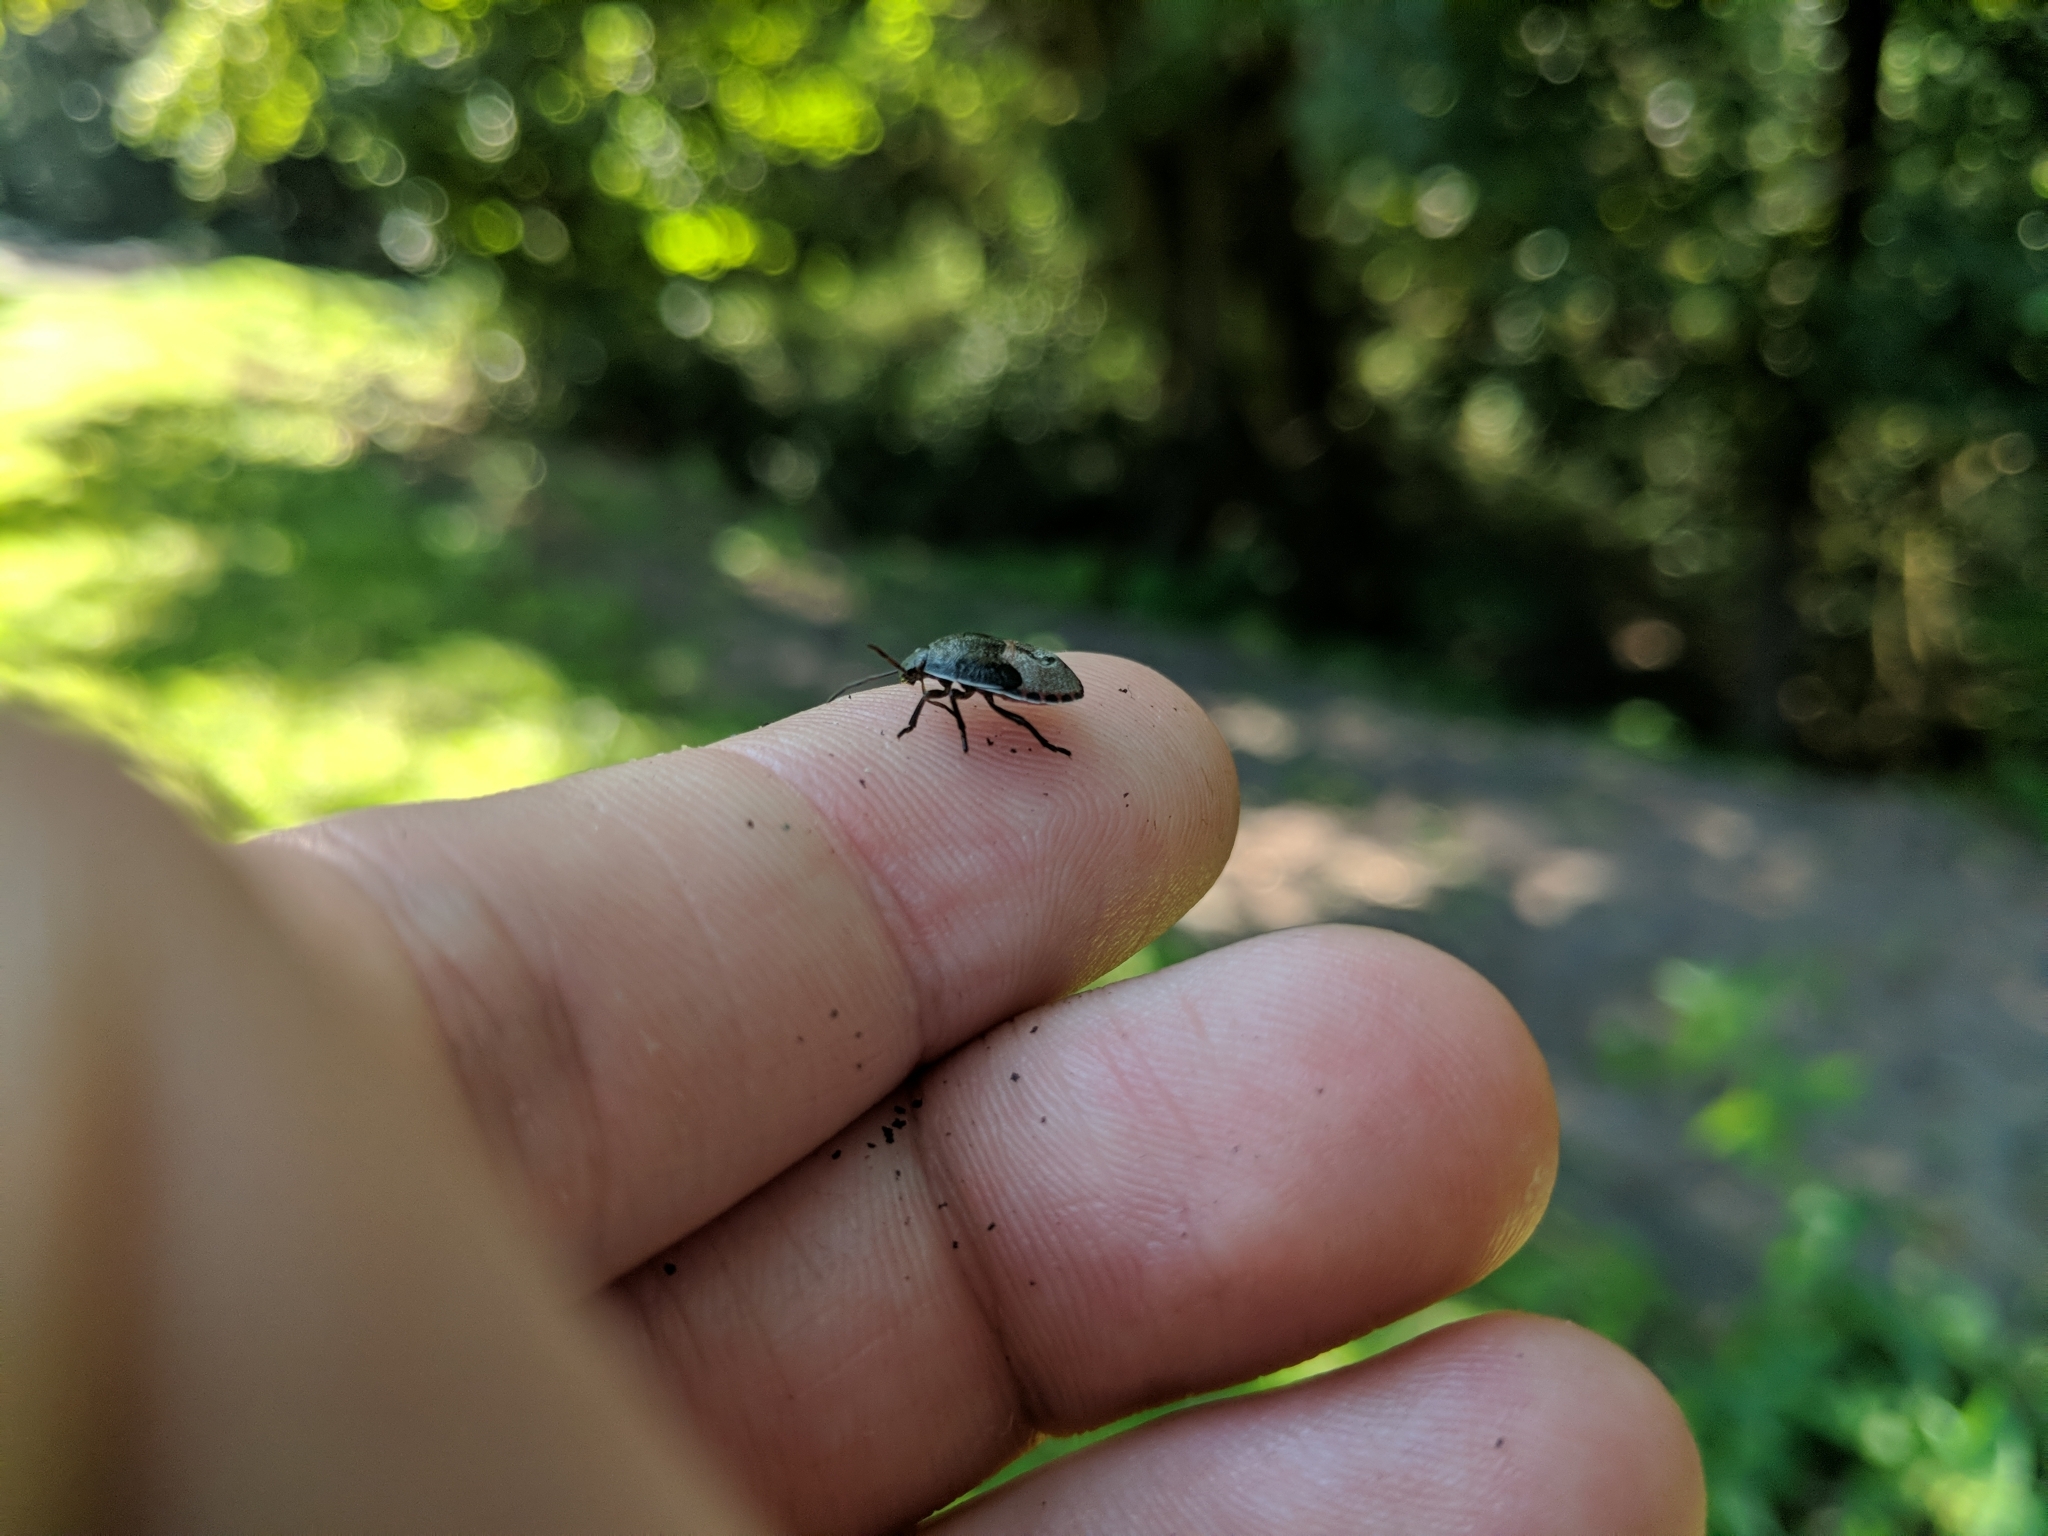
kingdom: Animalia
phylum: Arthropoda
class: Insecta
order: Hemiptera
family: Pentatomidae
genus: Piezodorus
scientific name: Piezodorus lituratus
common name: Stink bug
